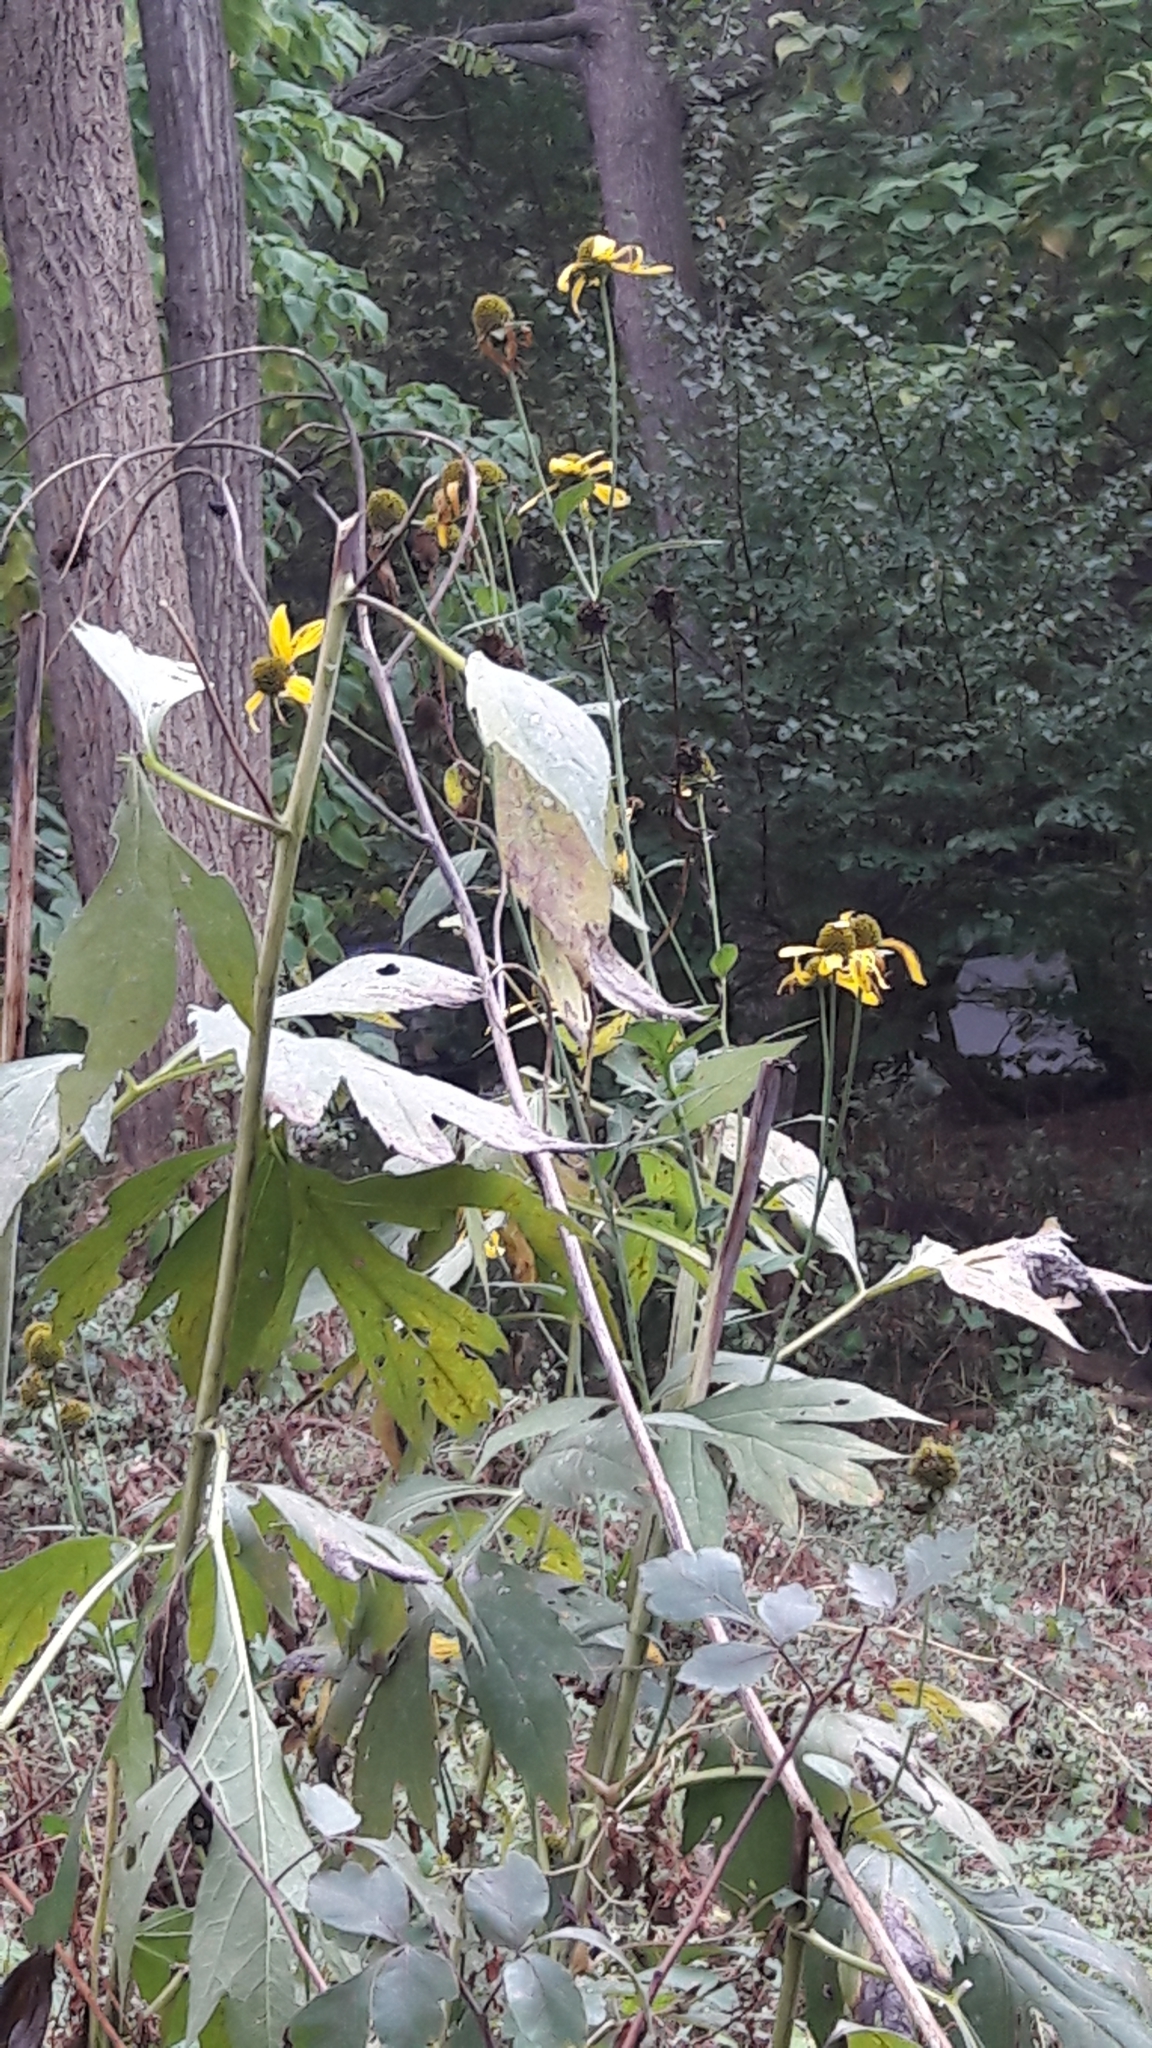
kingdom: Plantae
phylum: Tracheophyta
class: Magnoliopsida
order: Asterales
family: Asteraceae
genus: Rudbeckia
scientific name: Rudbeckia laciniata
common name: Coneflower
